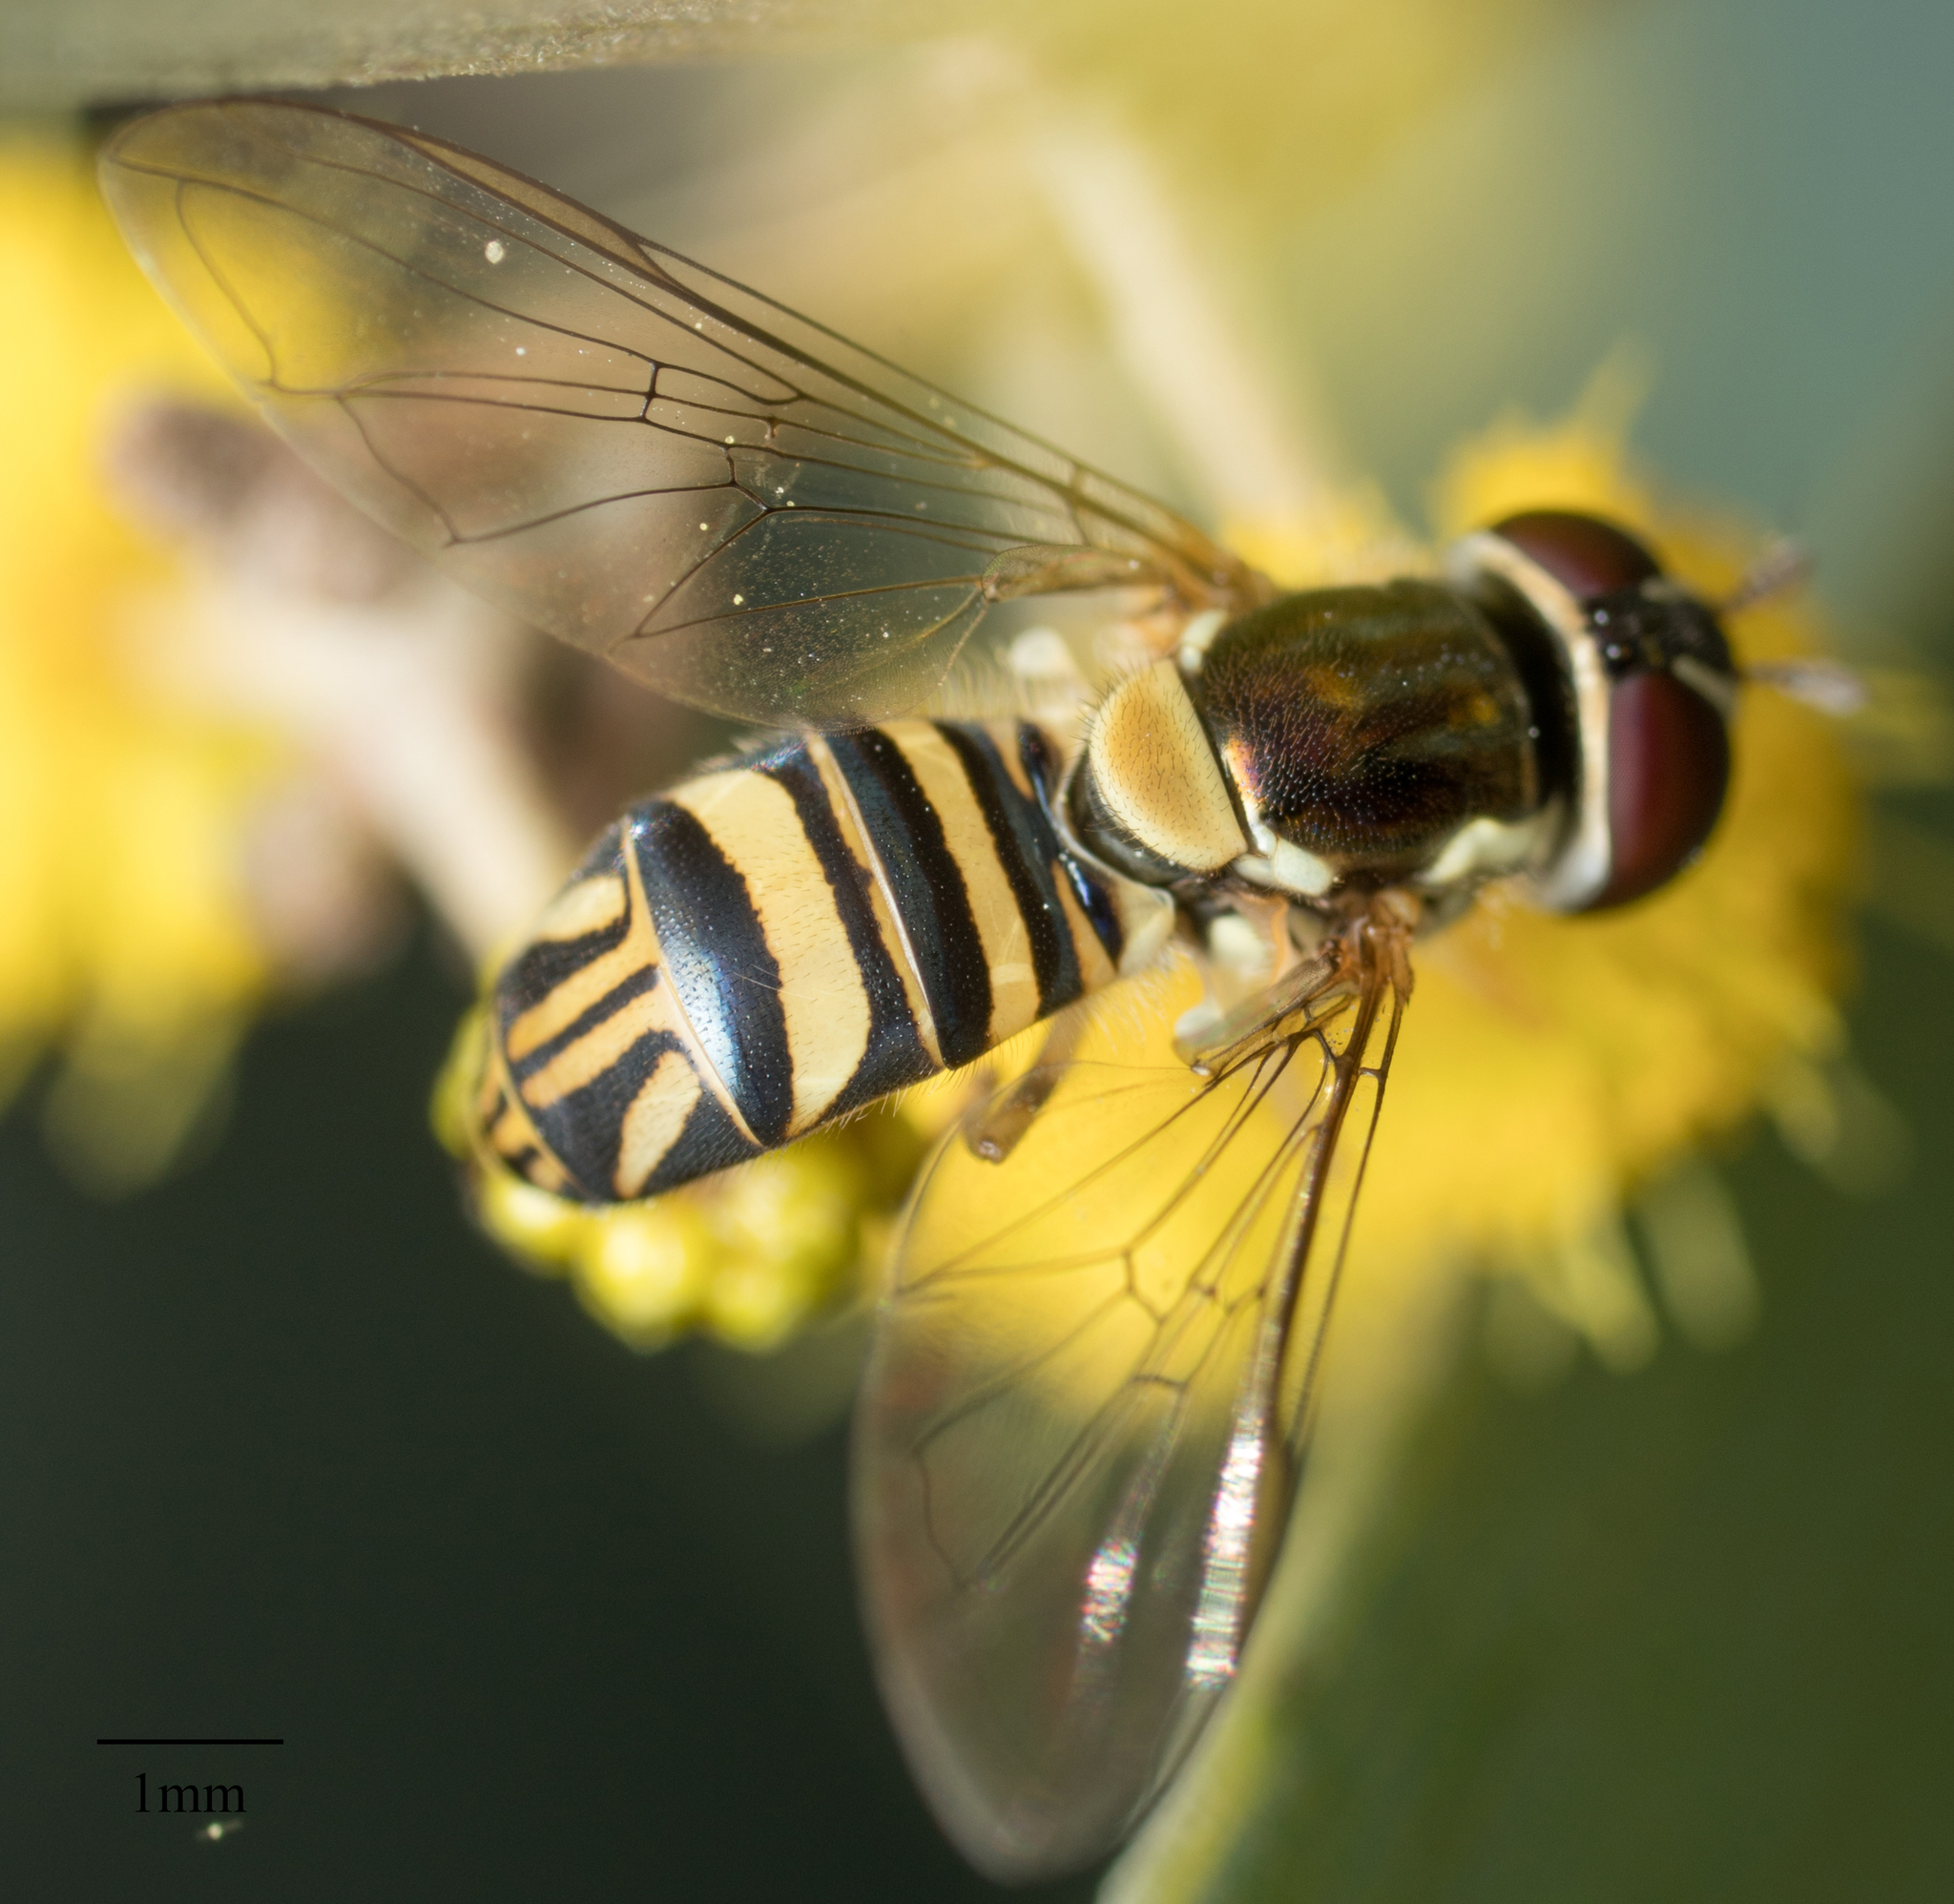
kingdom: Animalia
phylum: Arthropoda
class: Insecta
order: Diptera
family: Syrphidae
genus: Allograpta
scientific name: Allograpta obliqua
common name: Common oblique syrphid
